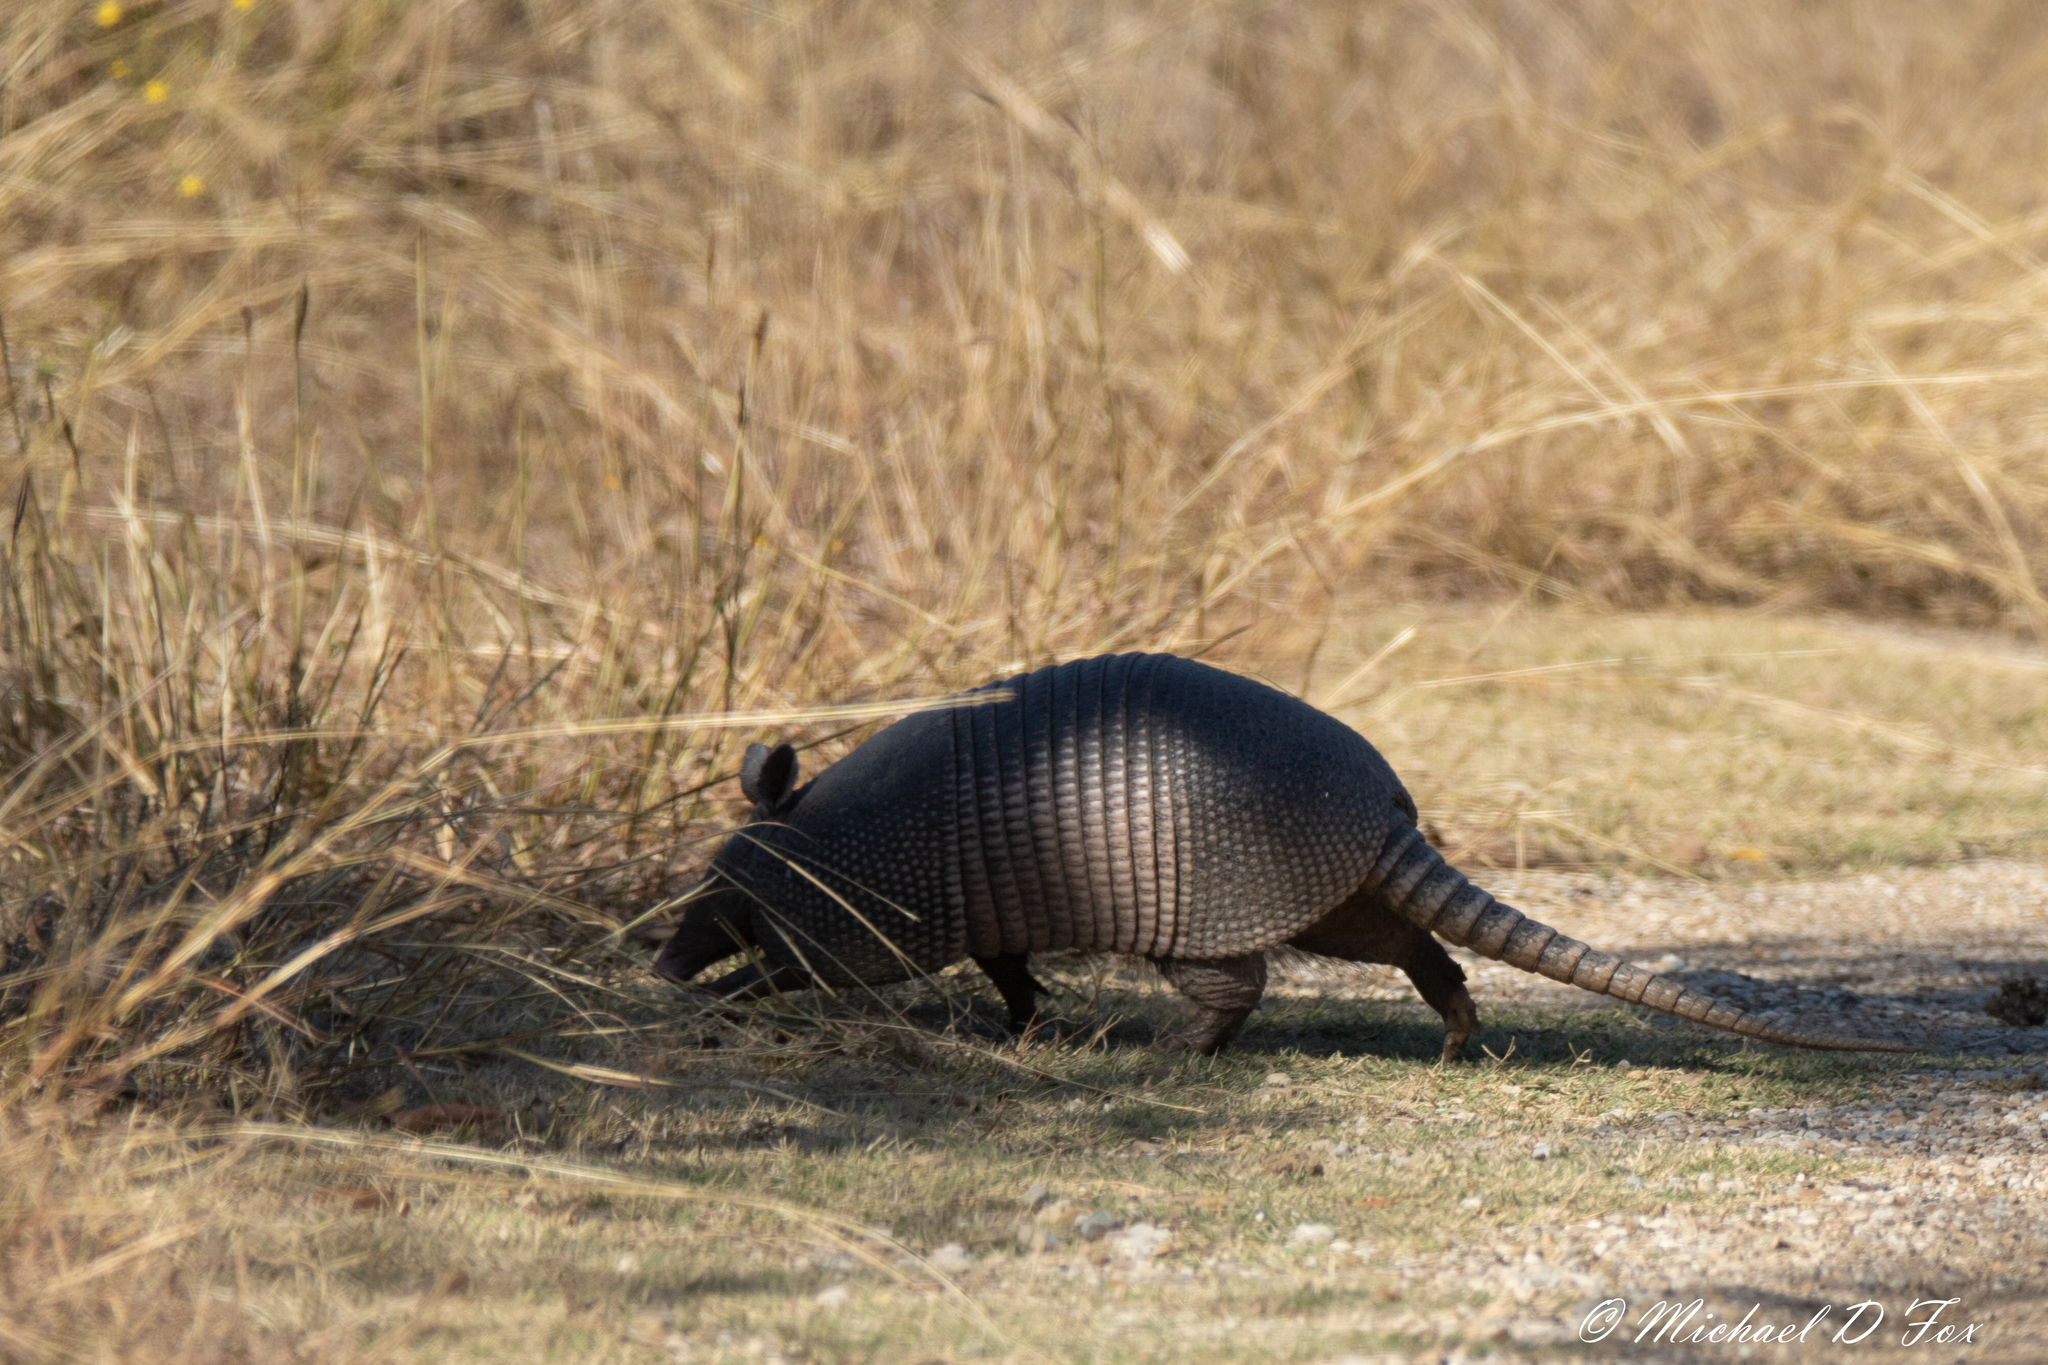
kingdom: Animalia
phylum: Chordata
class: Mammalia
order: Cingulata
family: Dasypodidae
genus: Dasypus
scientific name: Dasypus novemcinctus
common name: Nine-banded armadillo
